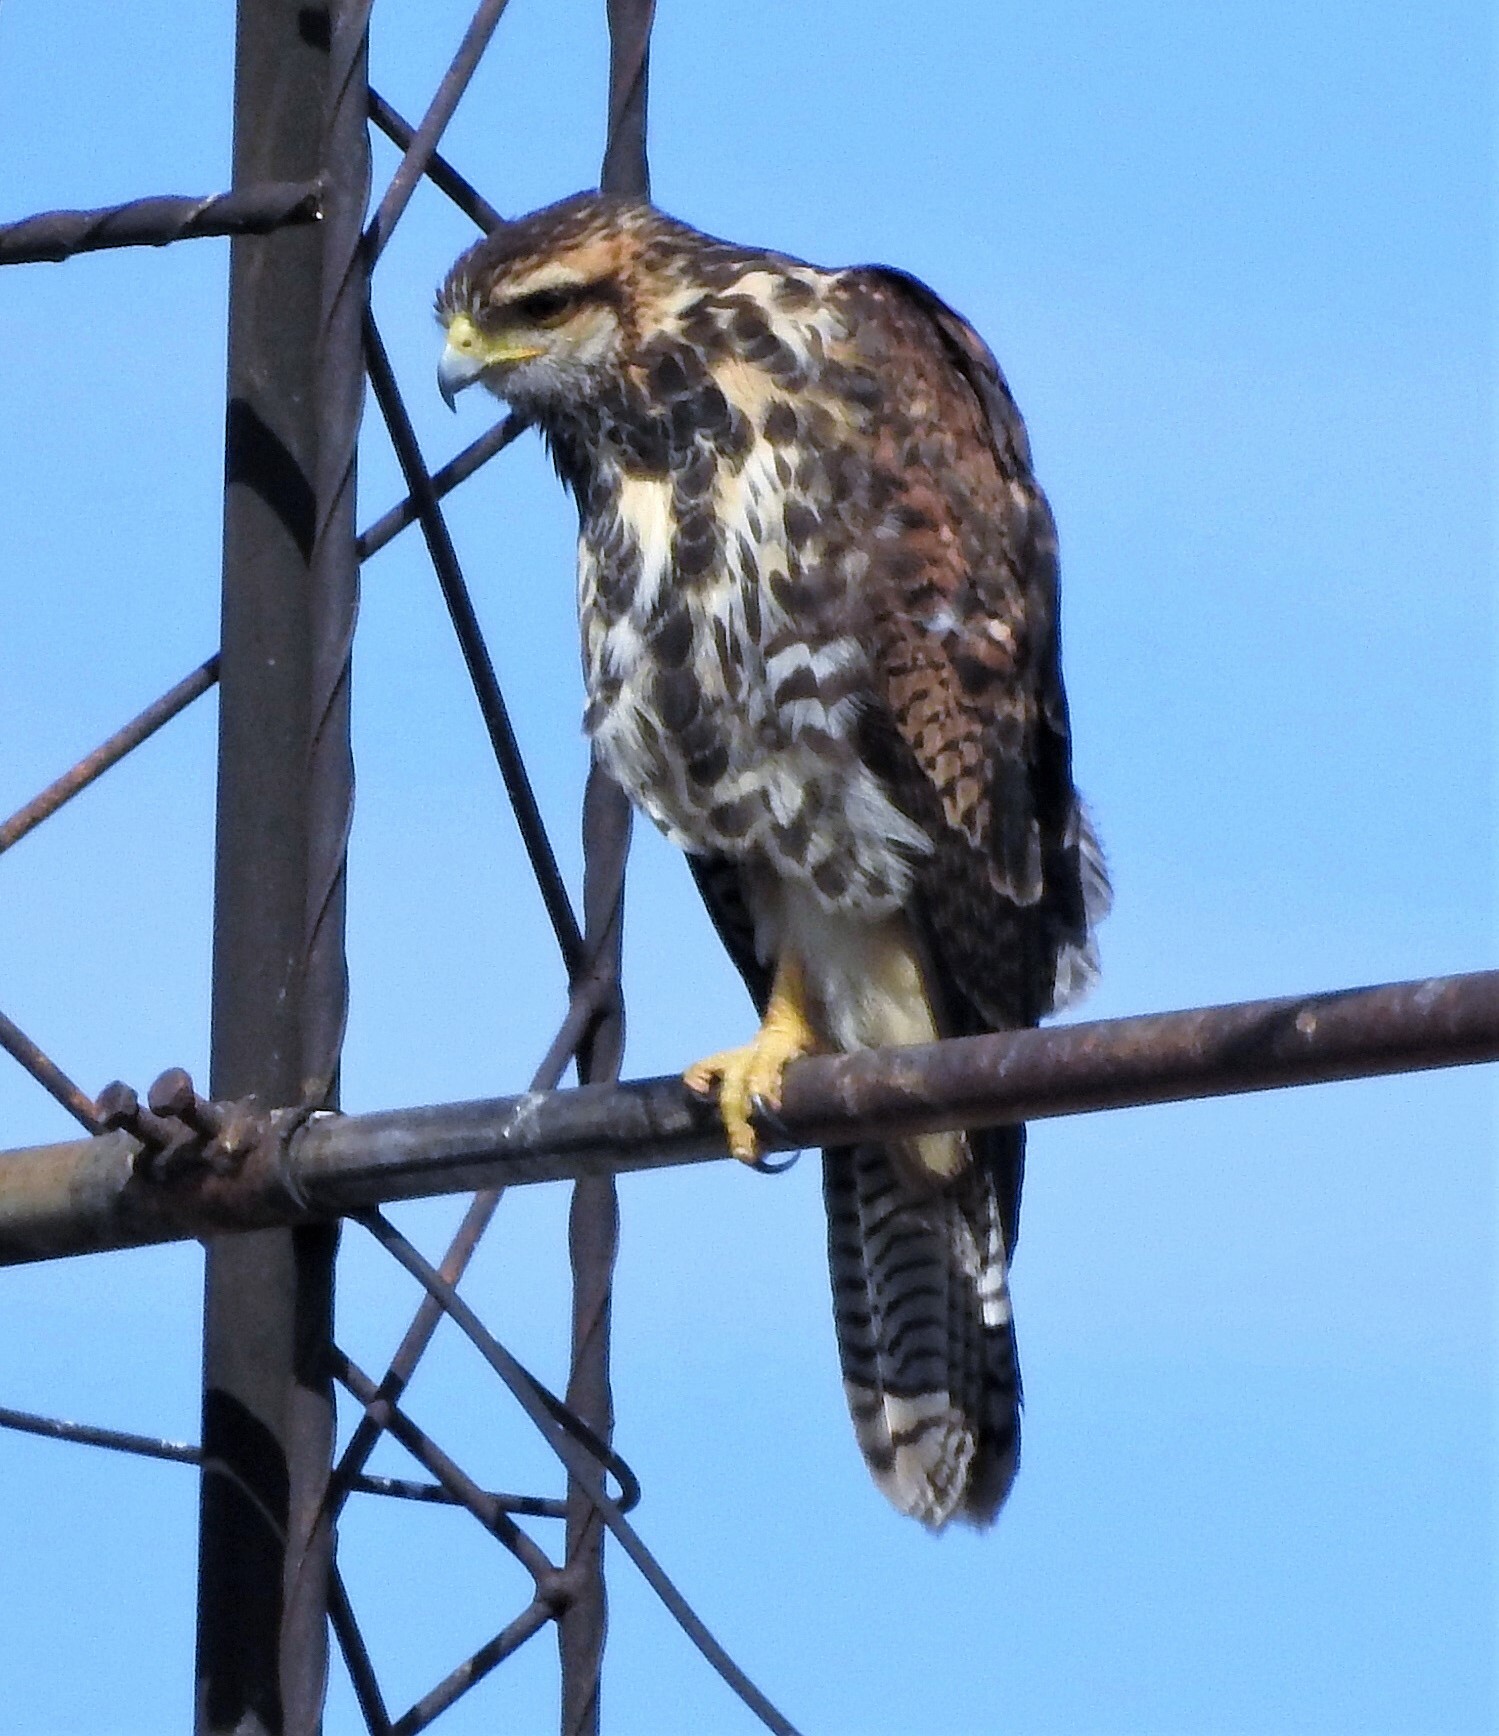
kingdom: Animalia
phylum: Chordata
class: Aves
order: Accipitriformes
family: Accipitridae
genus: Parabuteo
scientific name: Parabuteo unicinctus
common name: Harris's hawk
